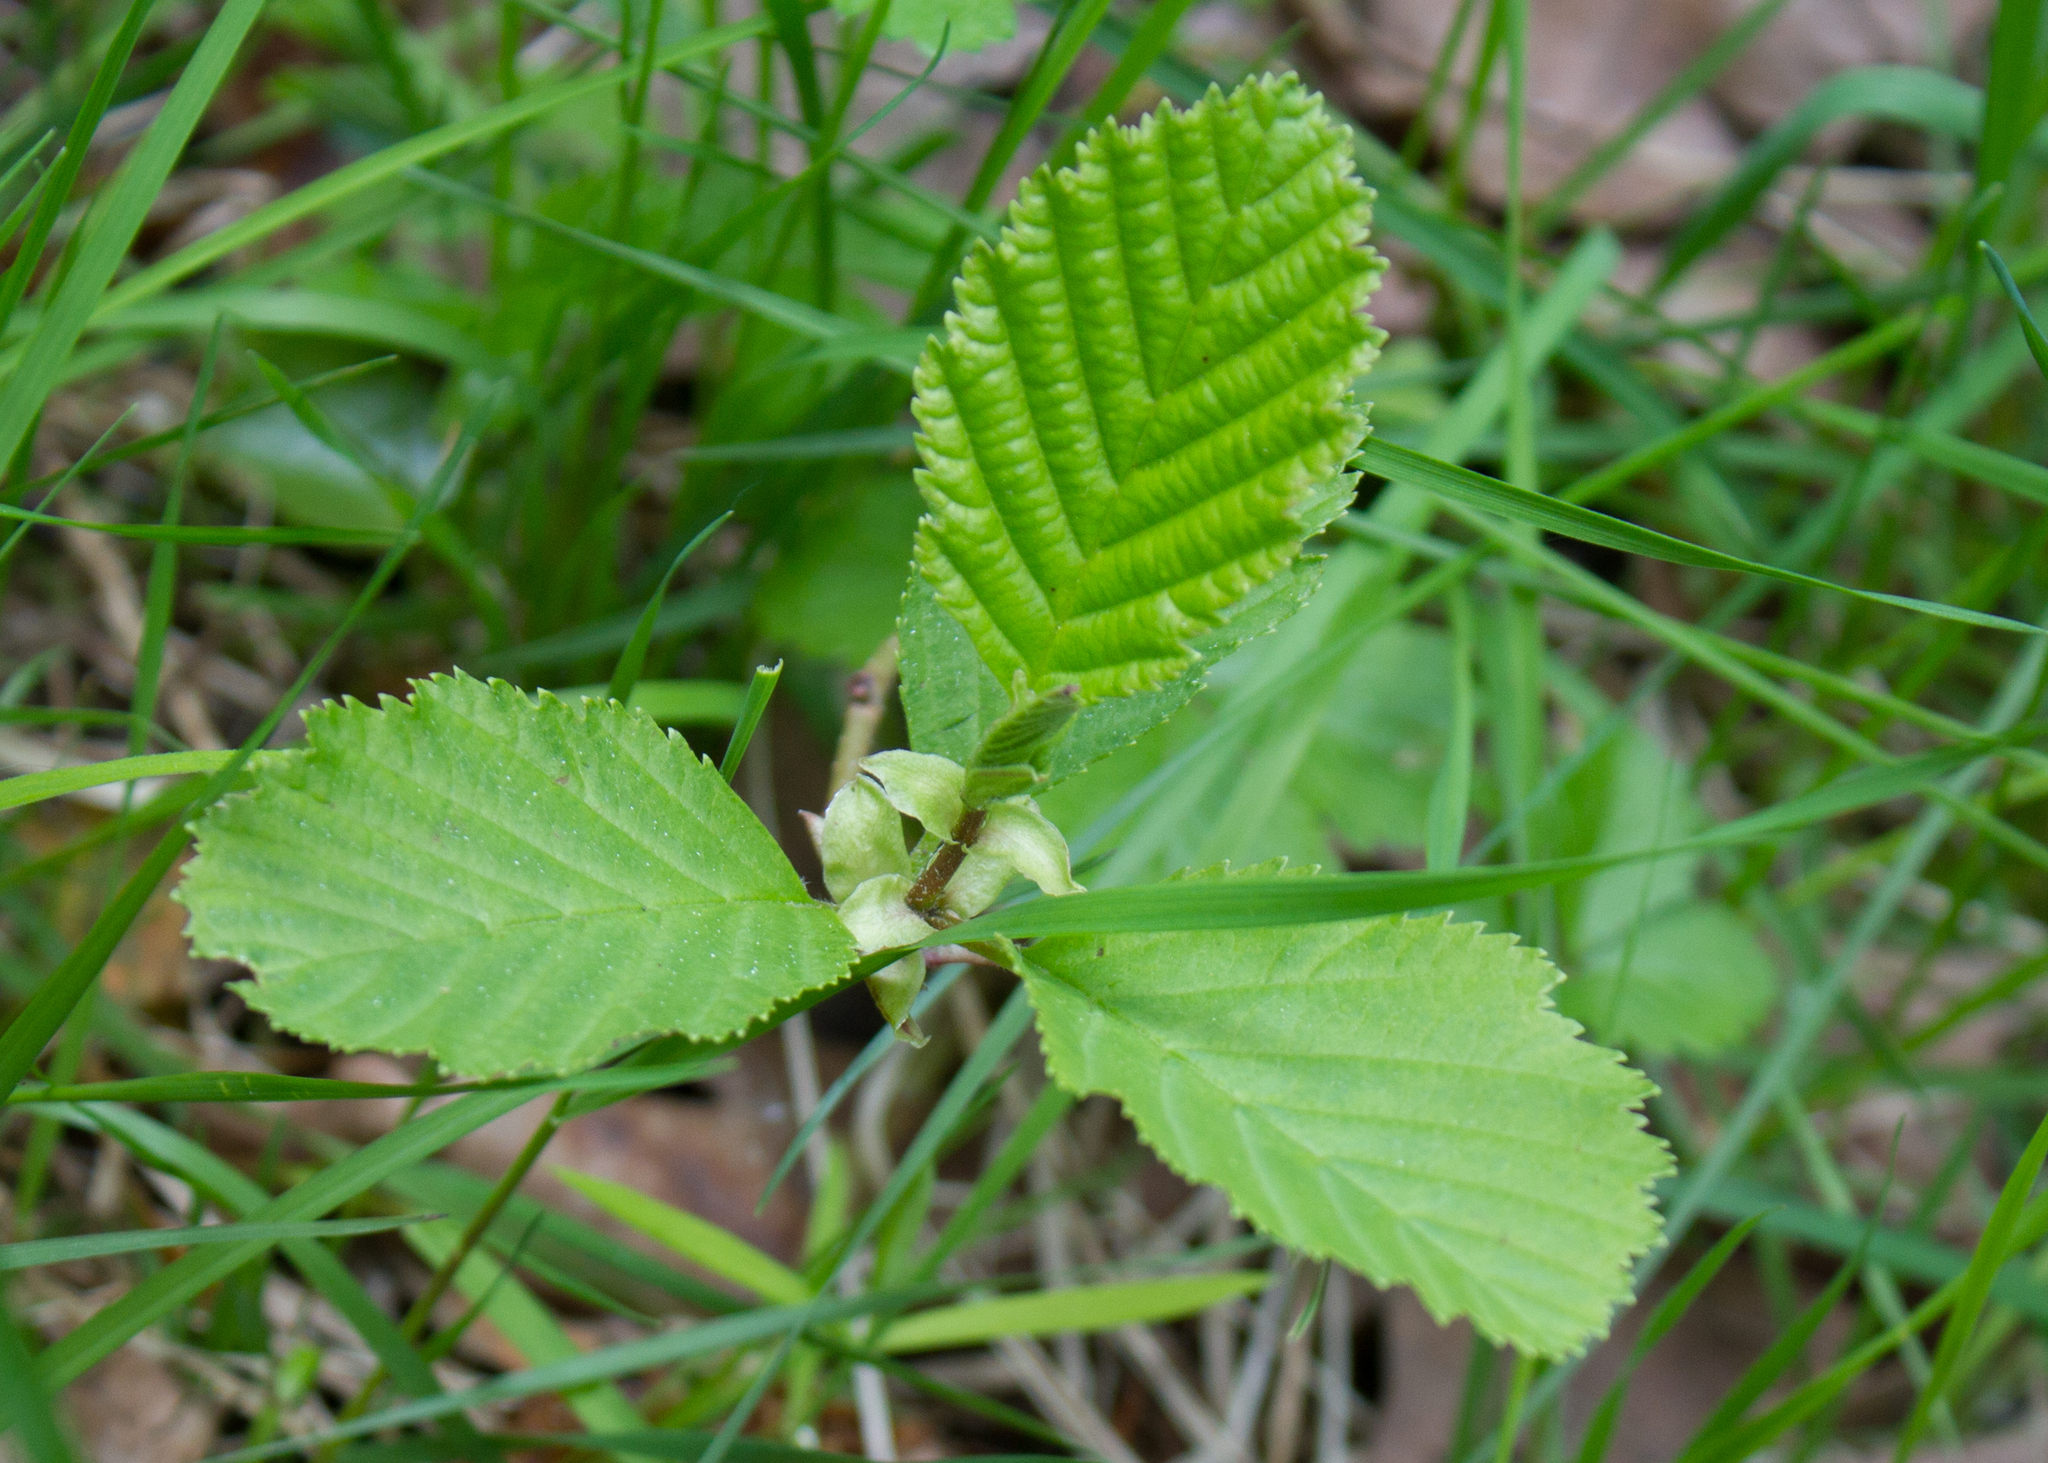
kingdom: Plantae
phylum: Tracheophyta
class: Magnoliopsida
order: Fagales
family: Betulaceae
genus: Alnus
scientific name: Alnus glutinosa
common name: Black alder
